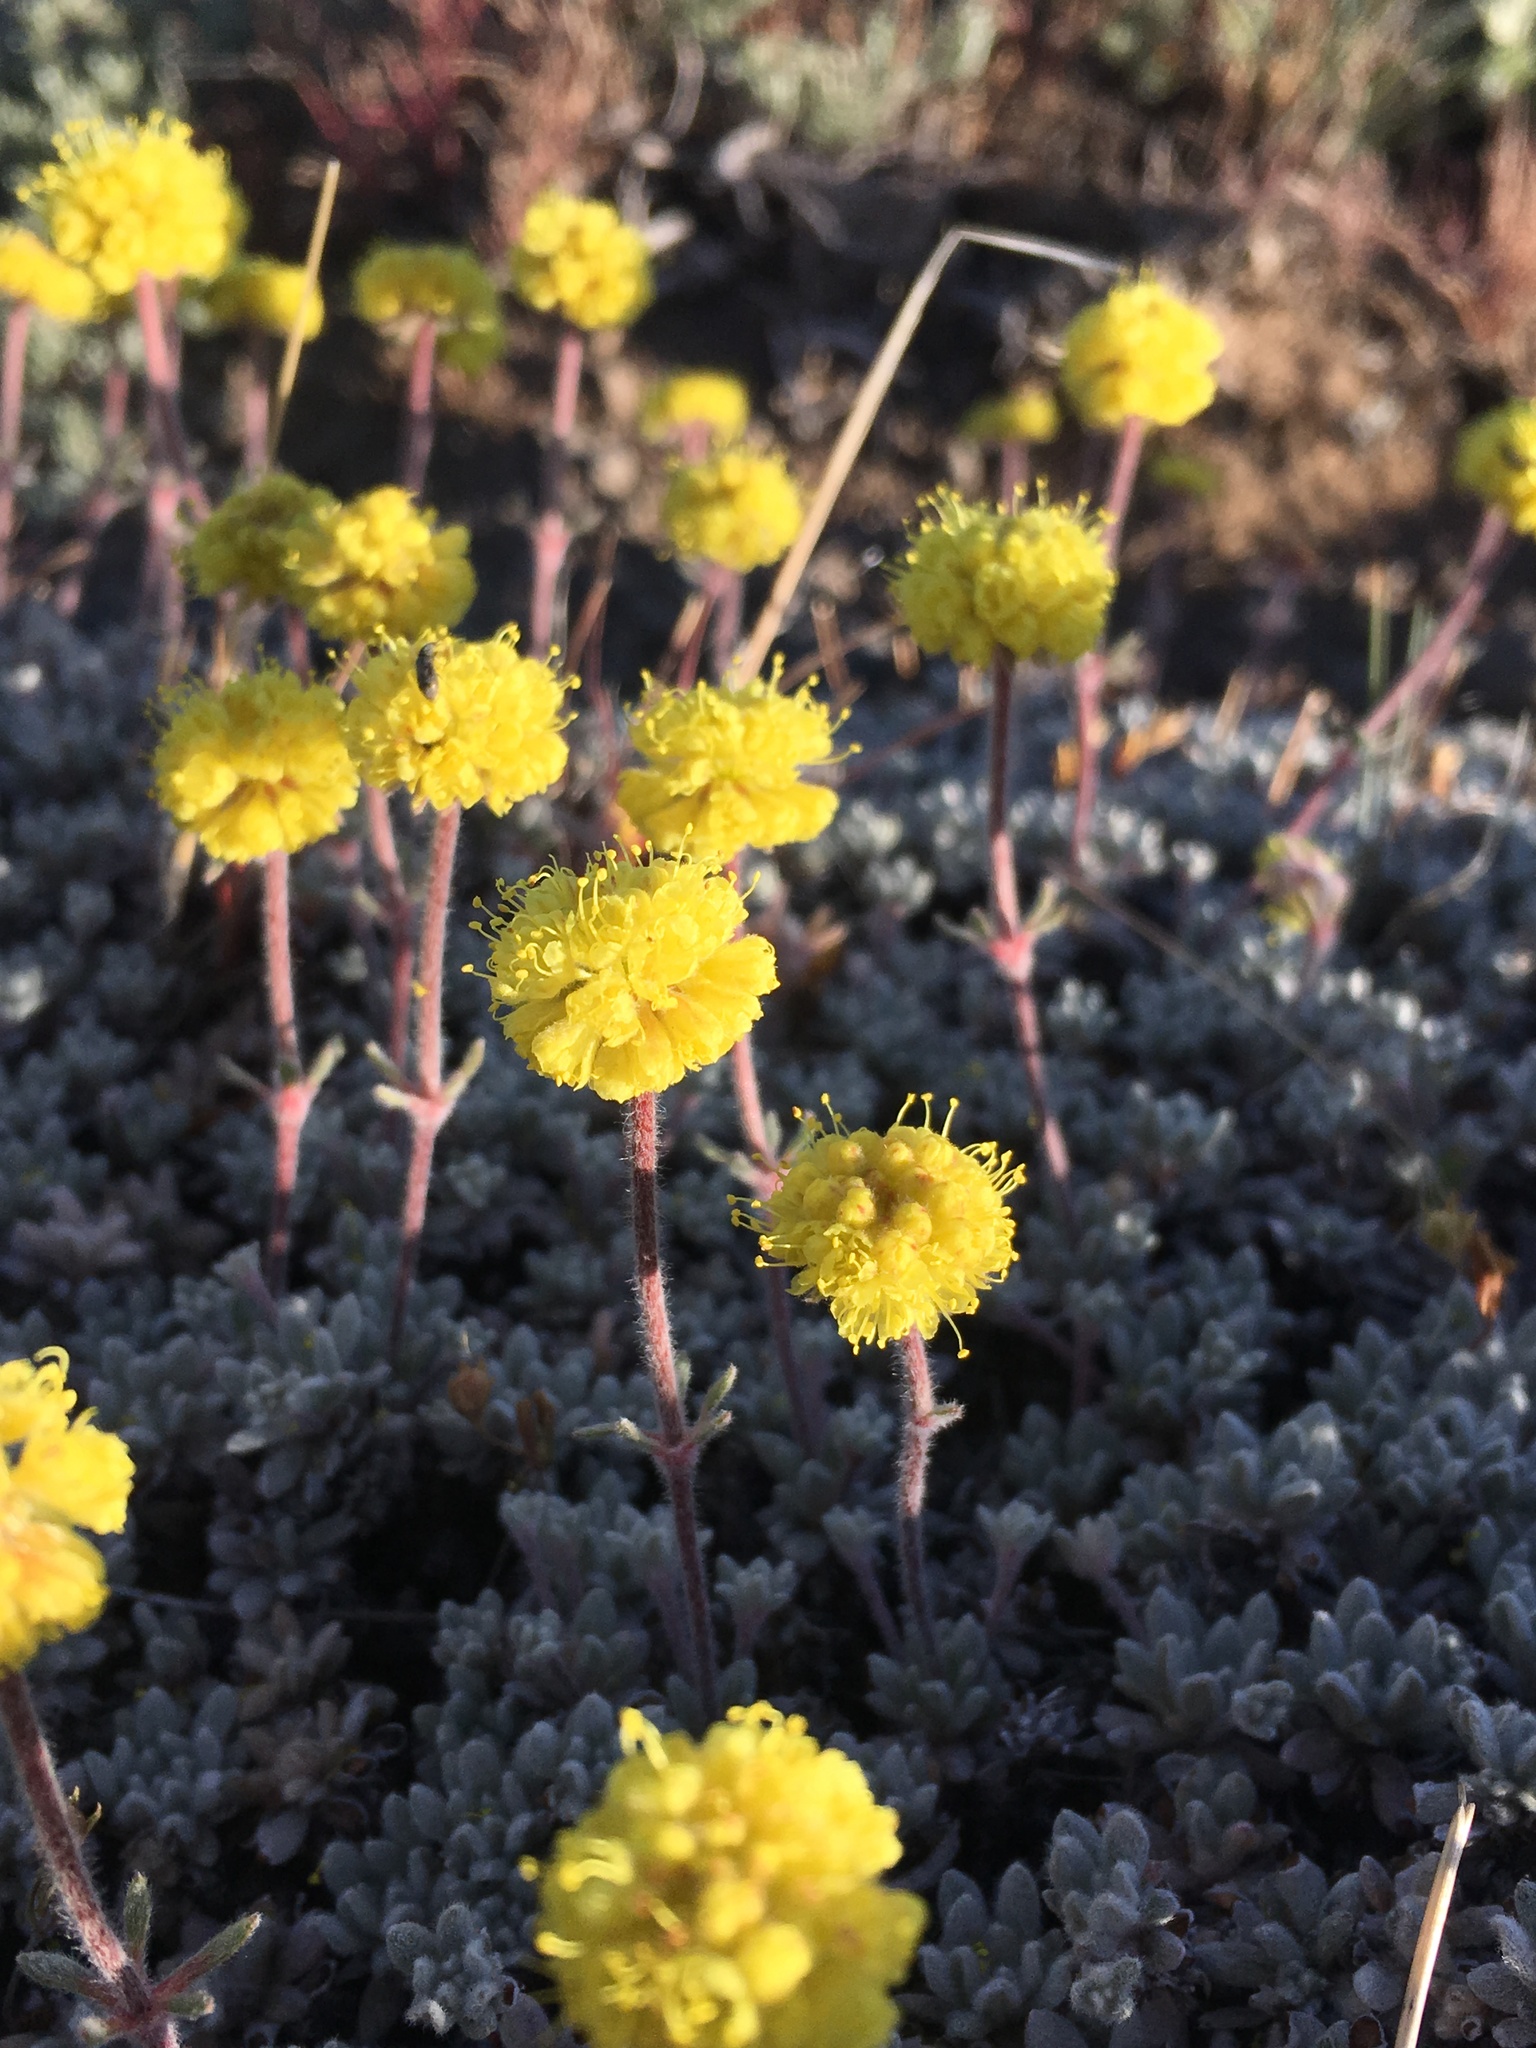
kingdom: Plantae
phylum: Tracheophyta
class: Magnoliopsida
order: Caryophyllales
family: Polygonaceae
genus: Eriogonum
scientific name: Eriogonum douglasii
